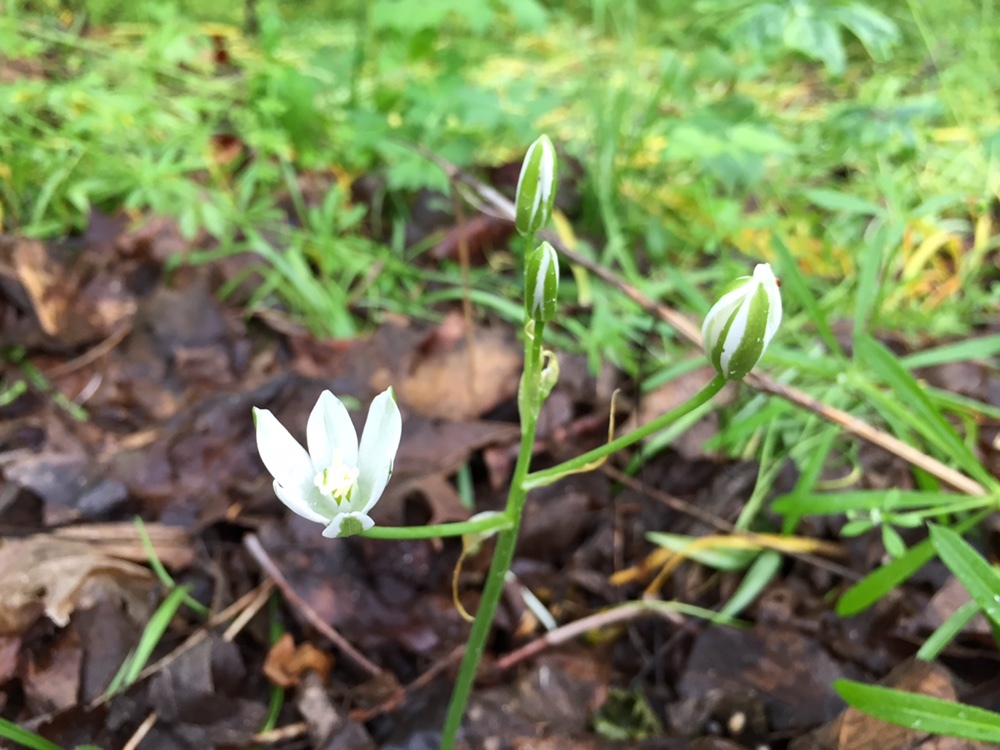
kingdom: Plantae
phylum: Tracheophyta
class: Liliopsida
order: Asparagales
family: Asparagaceae
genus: Ornithogalum
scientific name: Ornithogalum umbellatum
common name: Garden star-of-bethlehem
